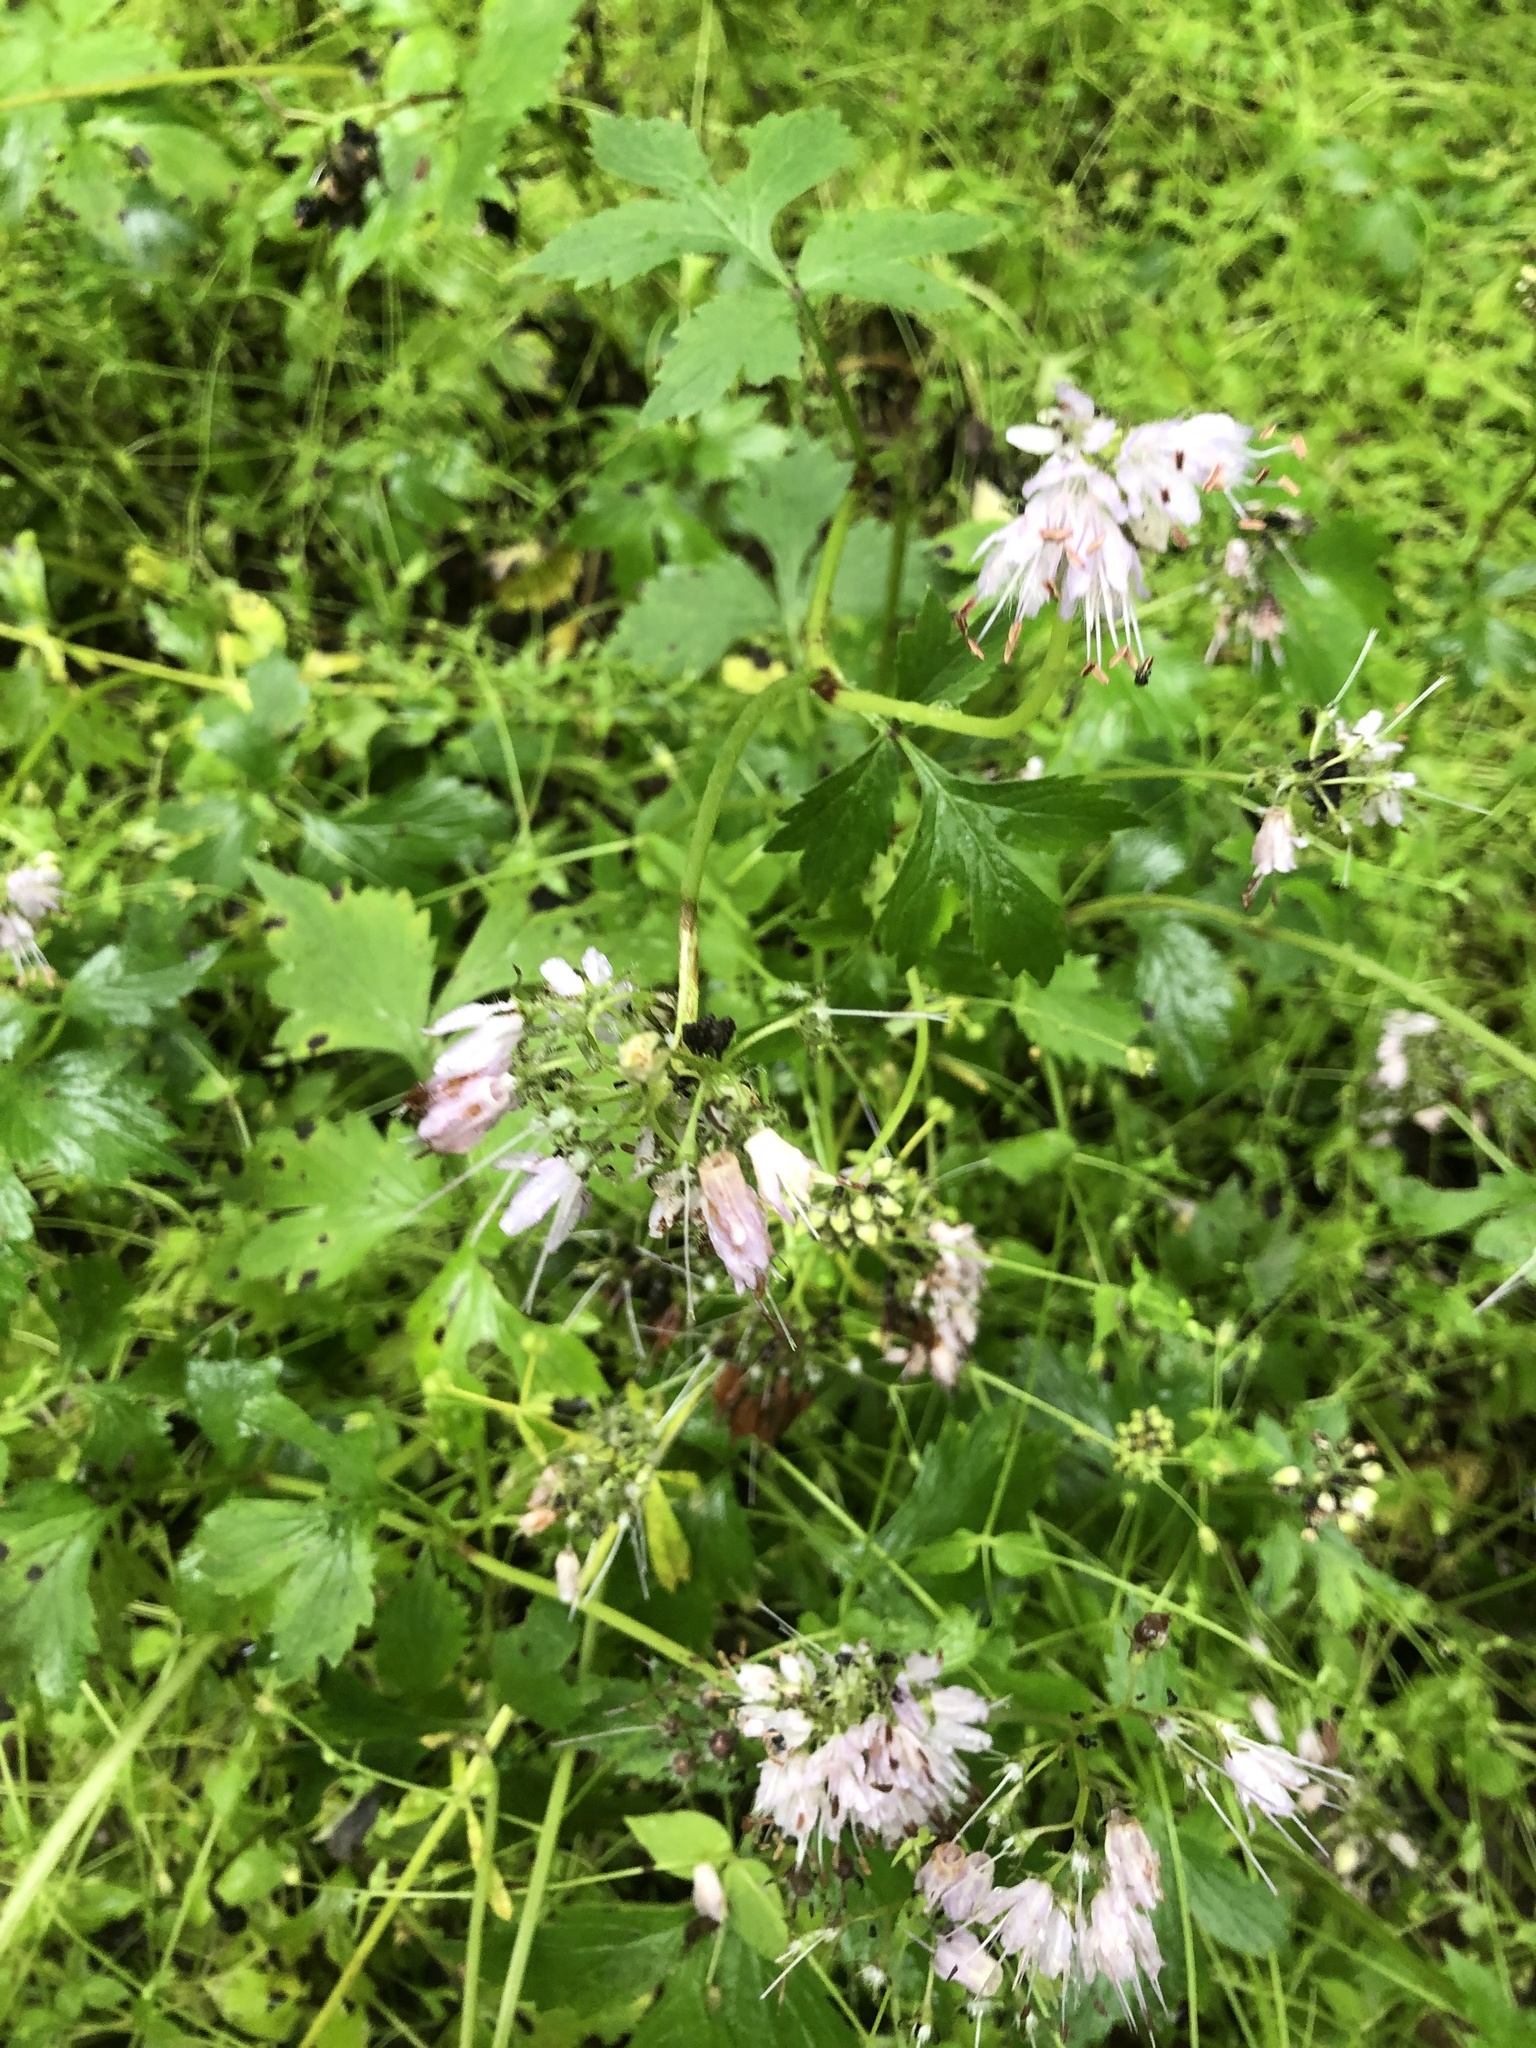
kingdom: Plantae
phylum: Tracheophyta
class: Magnoliopsida
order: Boraginales
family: Hydrophyllaceae
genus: Hydrophyllum
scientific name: Hydrophyllum virginianum
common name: Virginia waterleaf
